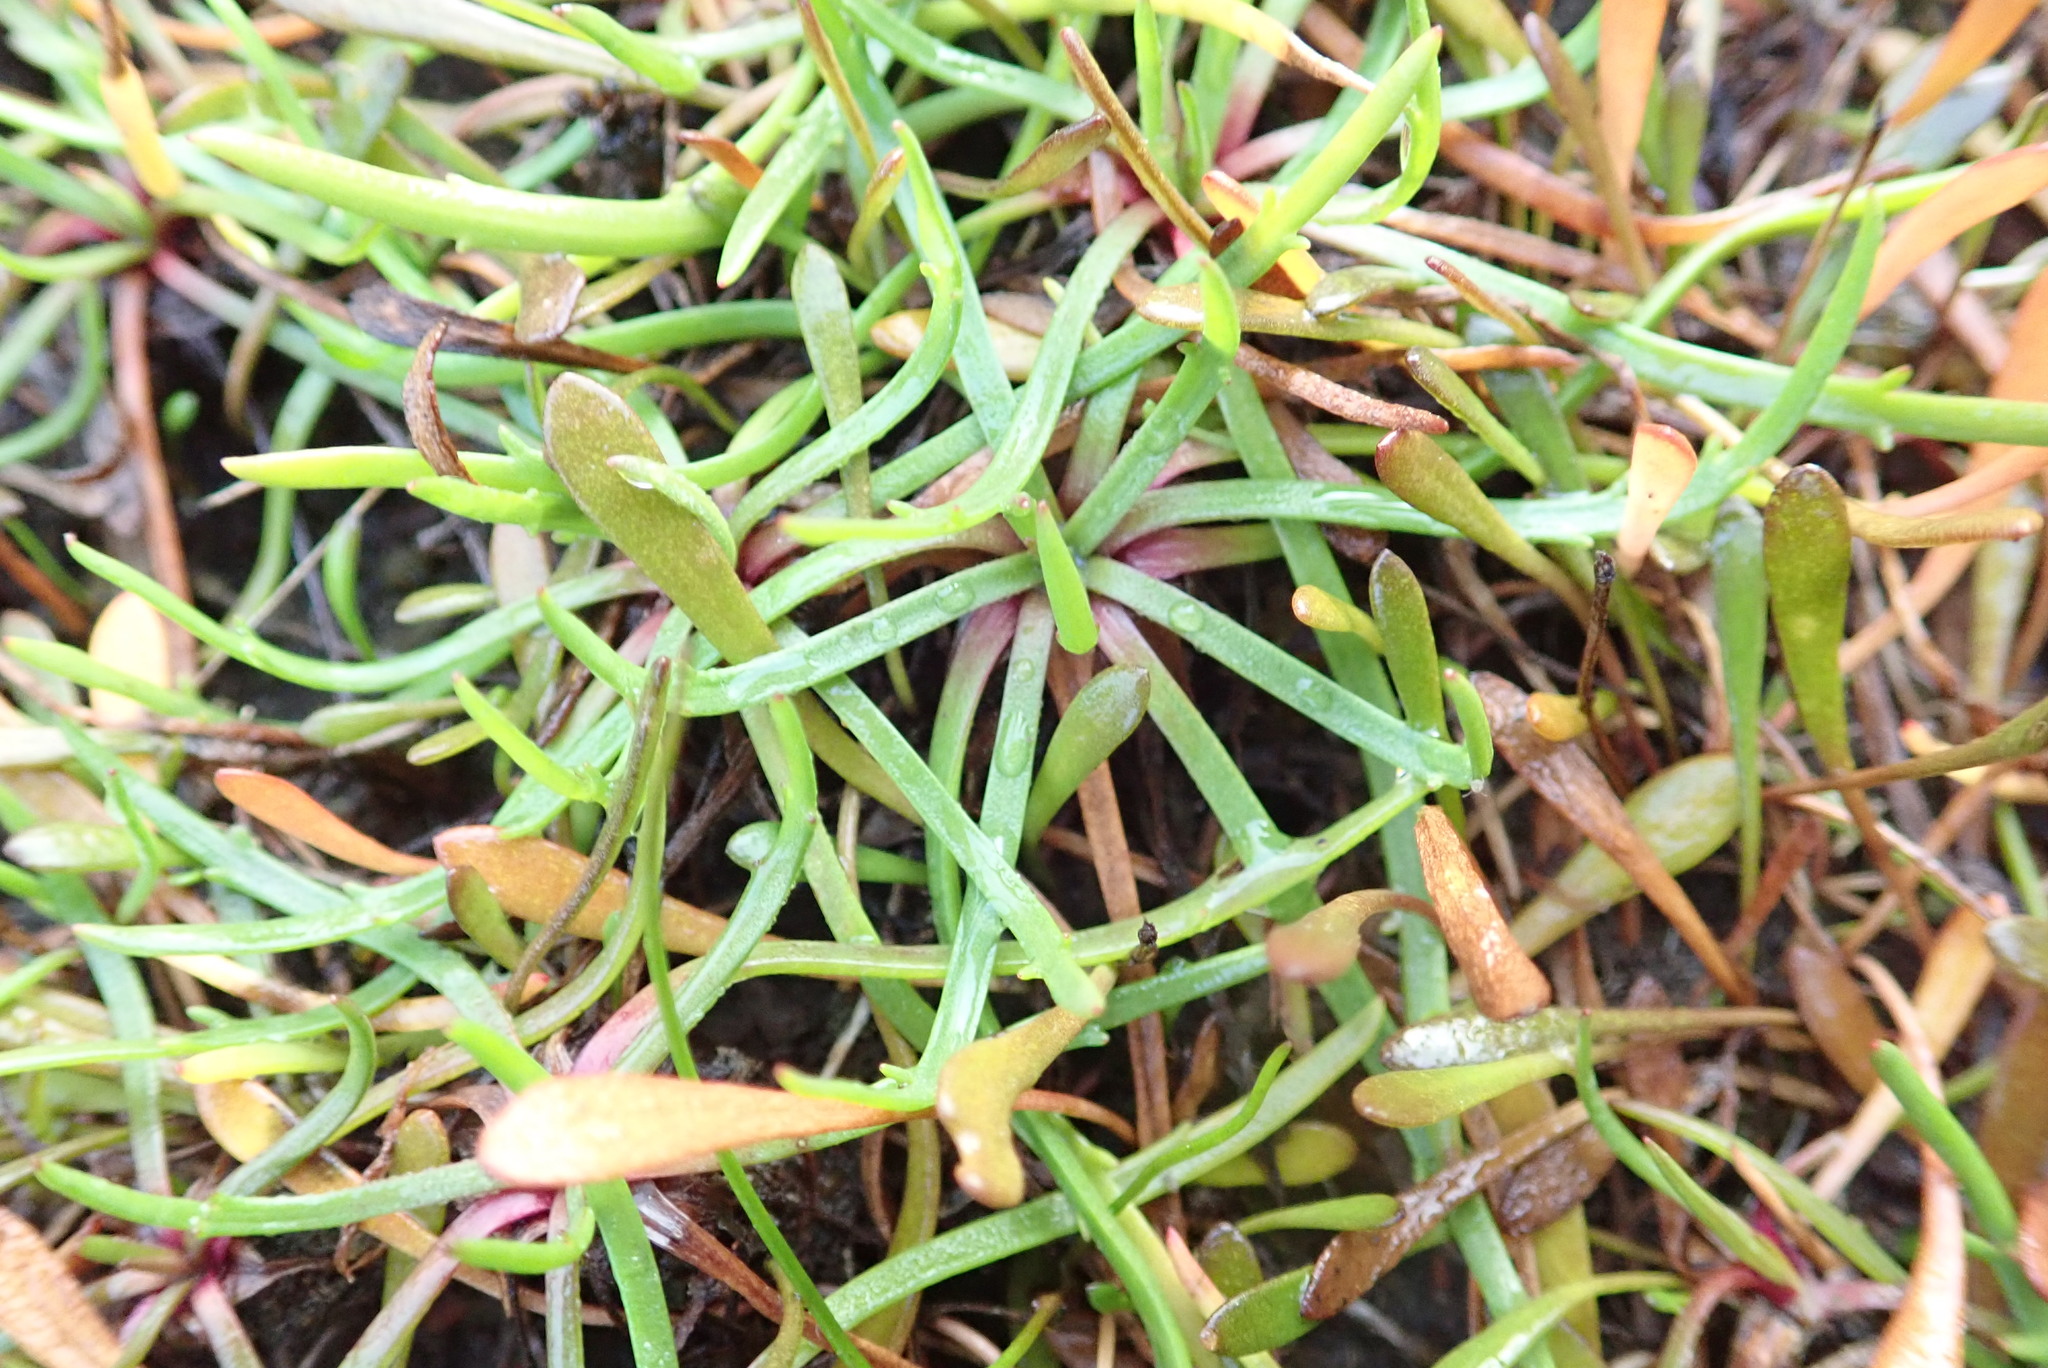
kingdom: Plantae
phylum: Tracheophyta
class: Magnoliopsida
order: Lamiales
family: Plantaginaceae
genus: Plantago
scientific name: Plantago coronopus
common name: Buck's-horn plantain
